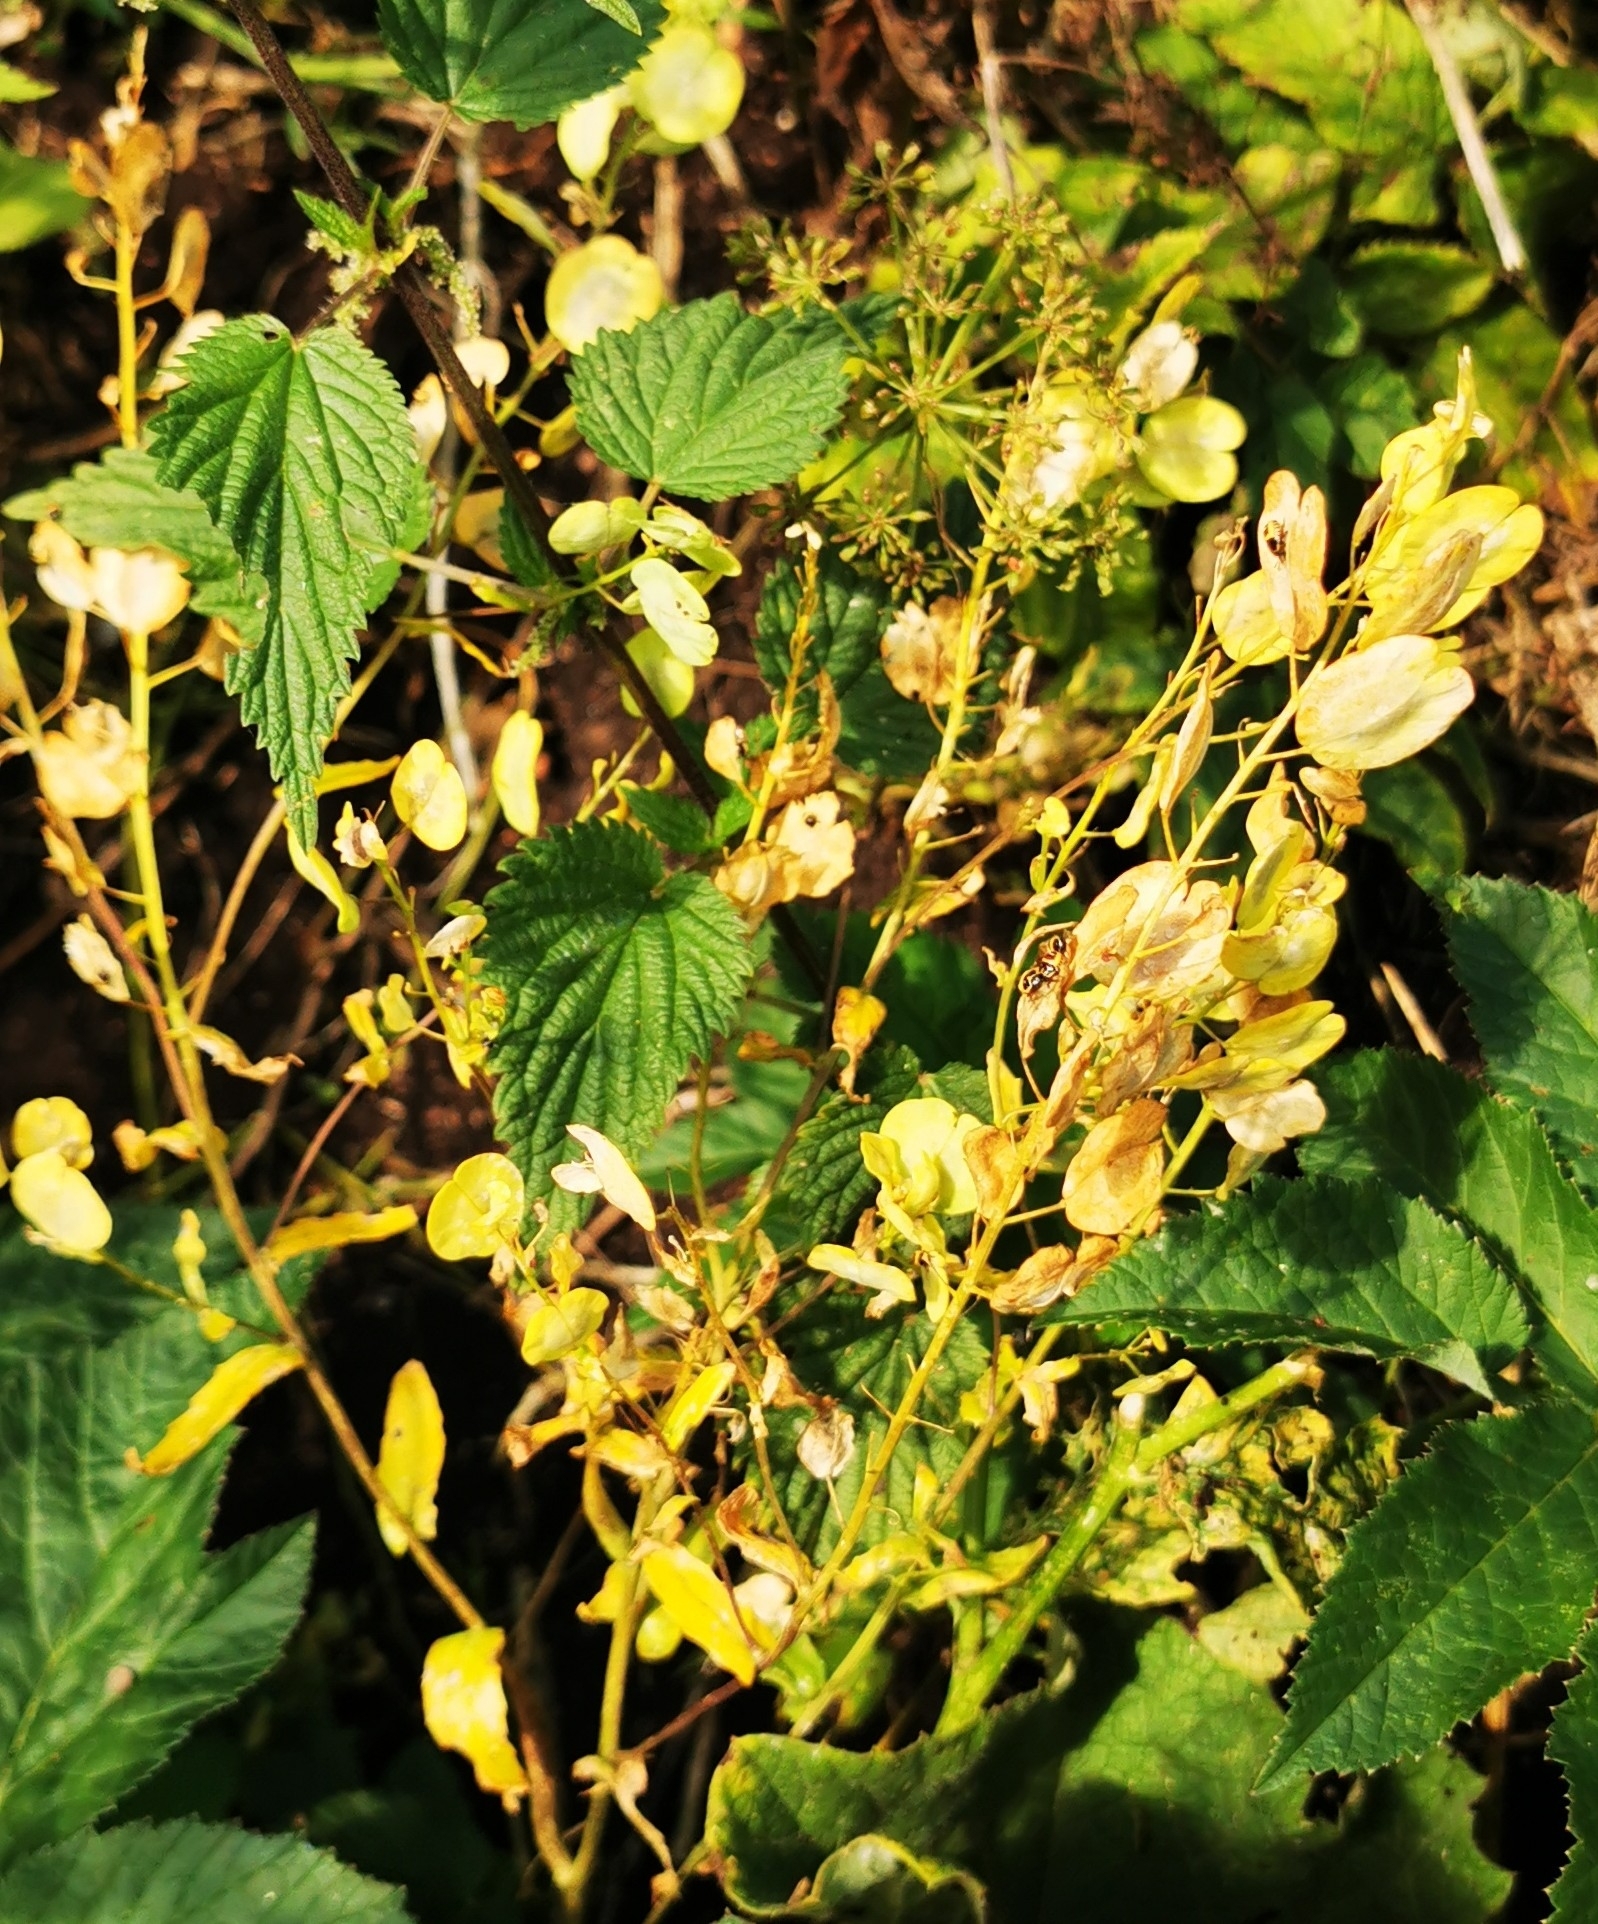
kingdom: Plantae
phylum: Tracheophyta
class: Magnoliopsida
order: Brassicales
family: Brassicaceae
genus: Thlaspi
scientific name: Thlaspi arvense
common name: Field pennycress
